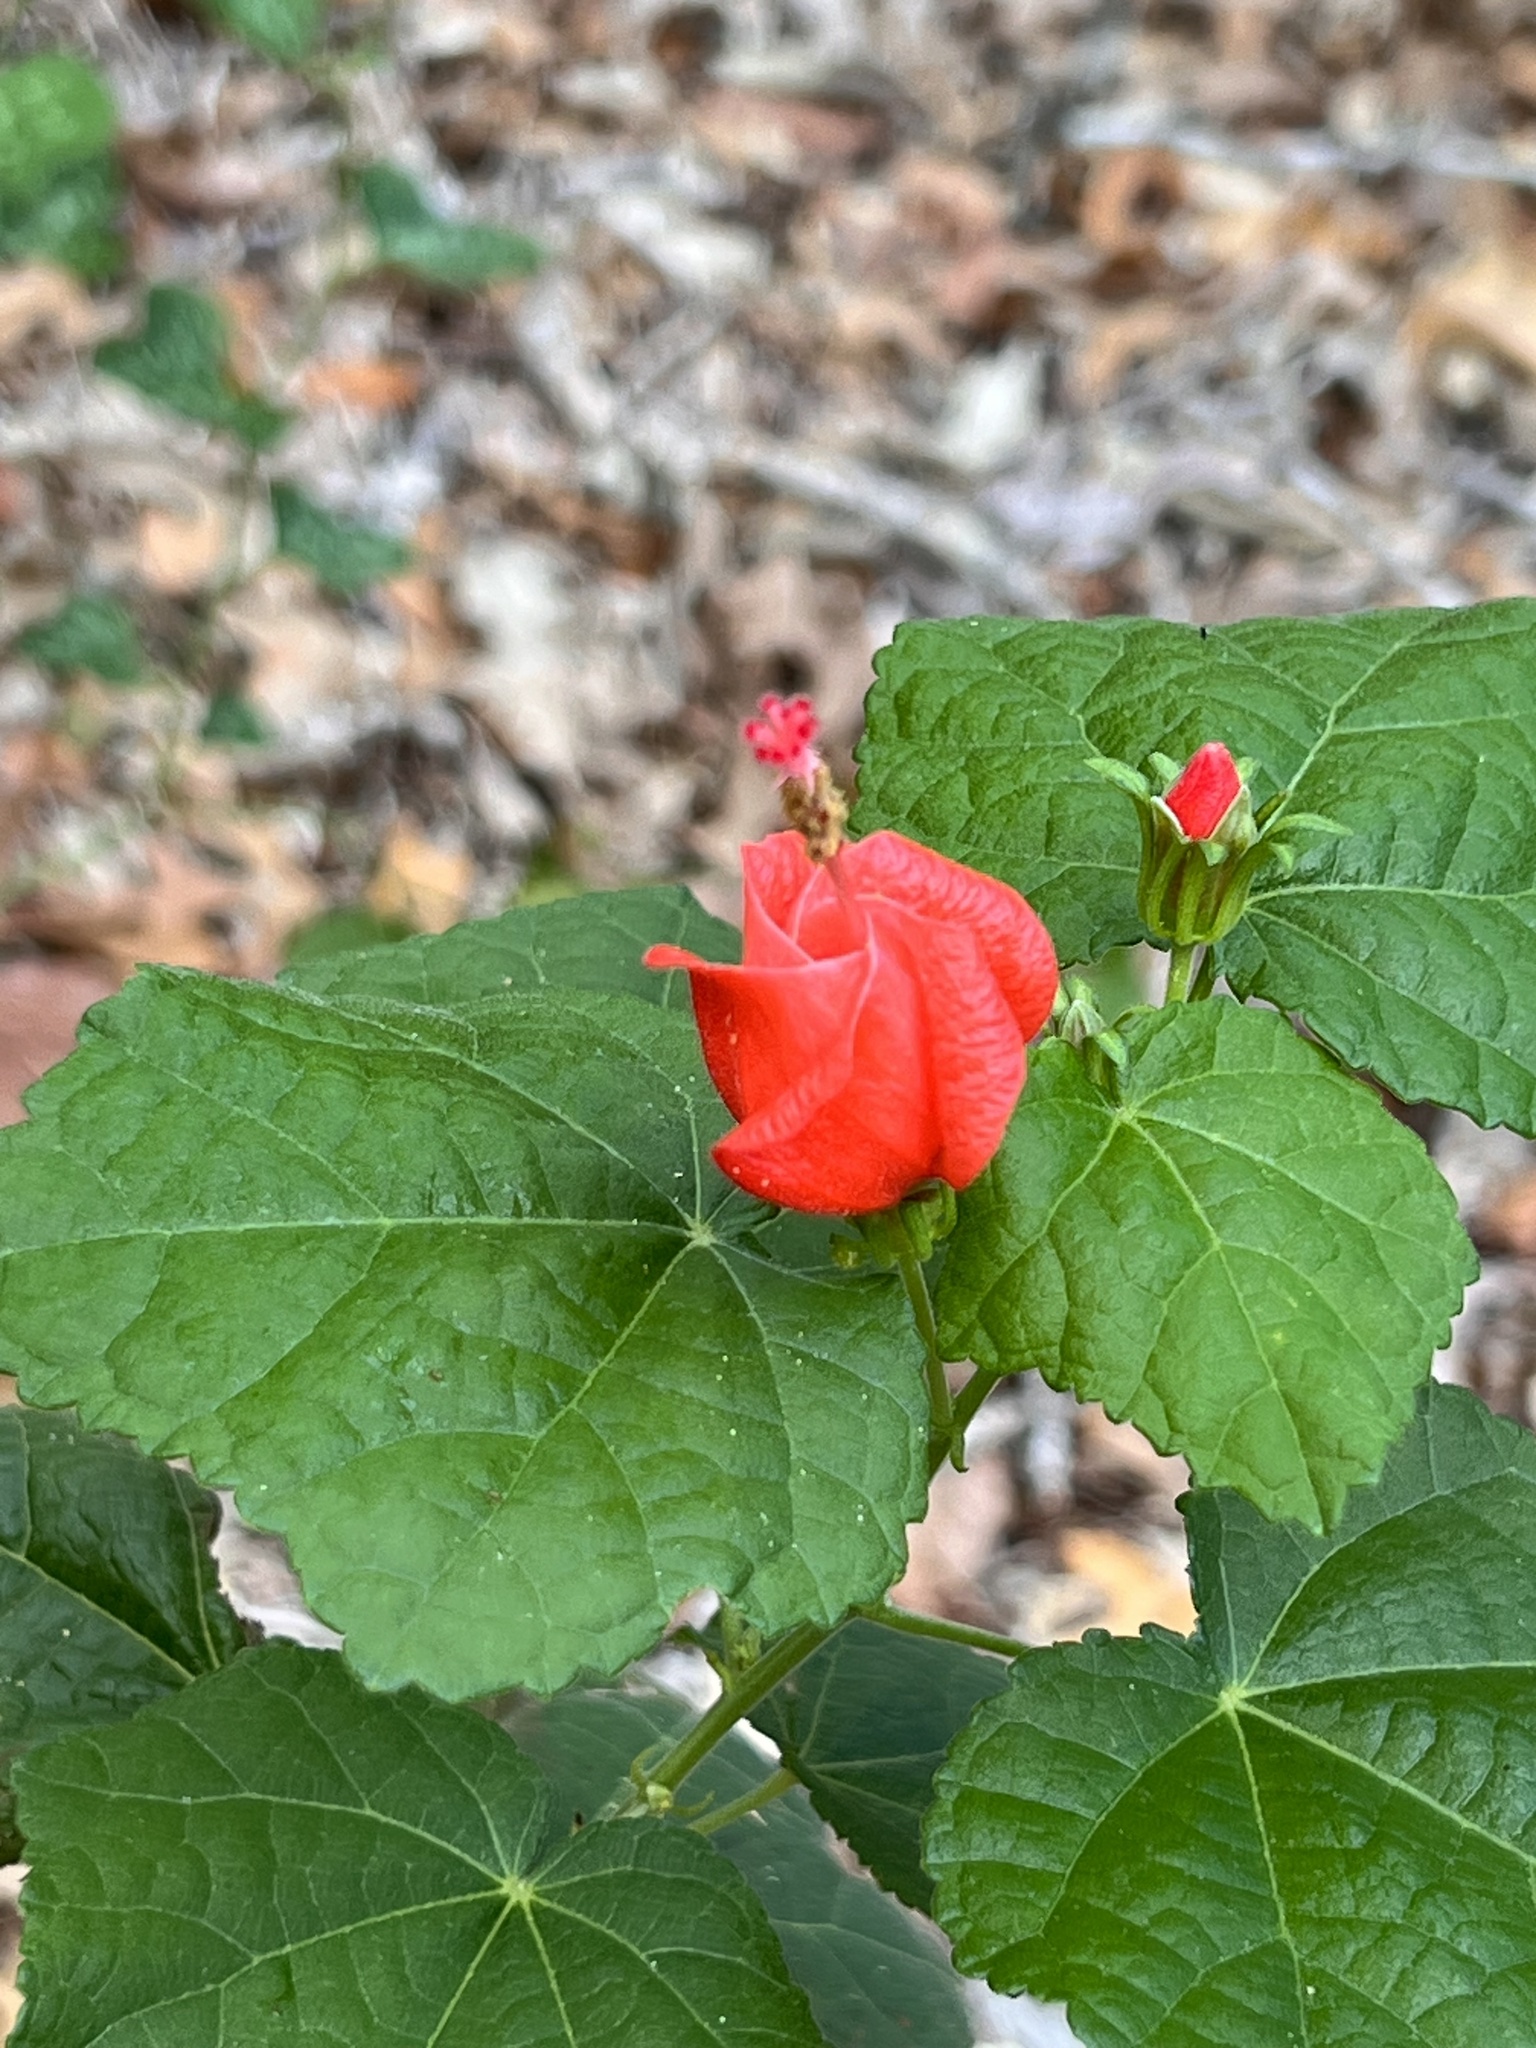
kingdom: Plantae
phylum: Tracheophyta
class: Magnoliopsida
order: Malvales
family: Malvaceae
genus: Malvaviscus
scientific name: Malvaviscus arboreus
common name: Wax mallow
